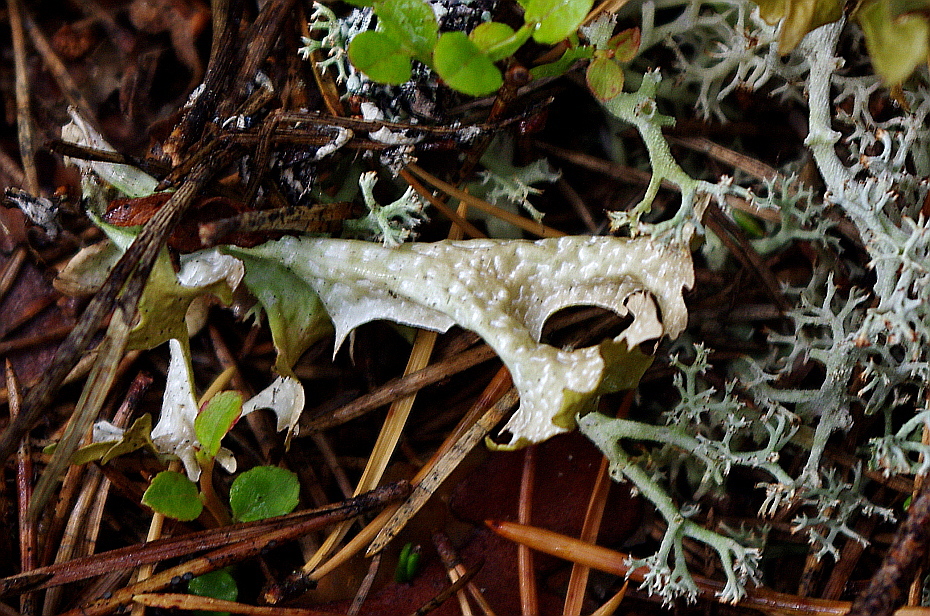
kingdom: Fungi
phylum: Ascomycota
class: Lecanoromycetes
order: Lecanorales
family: Parmeliaceae
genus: Cetraria
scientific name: Cetraria islandica
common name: Iceland lichen
